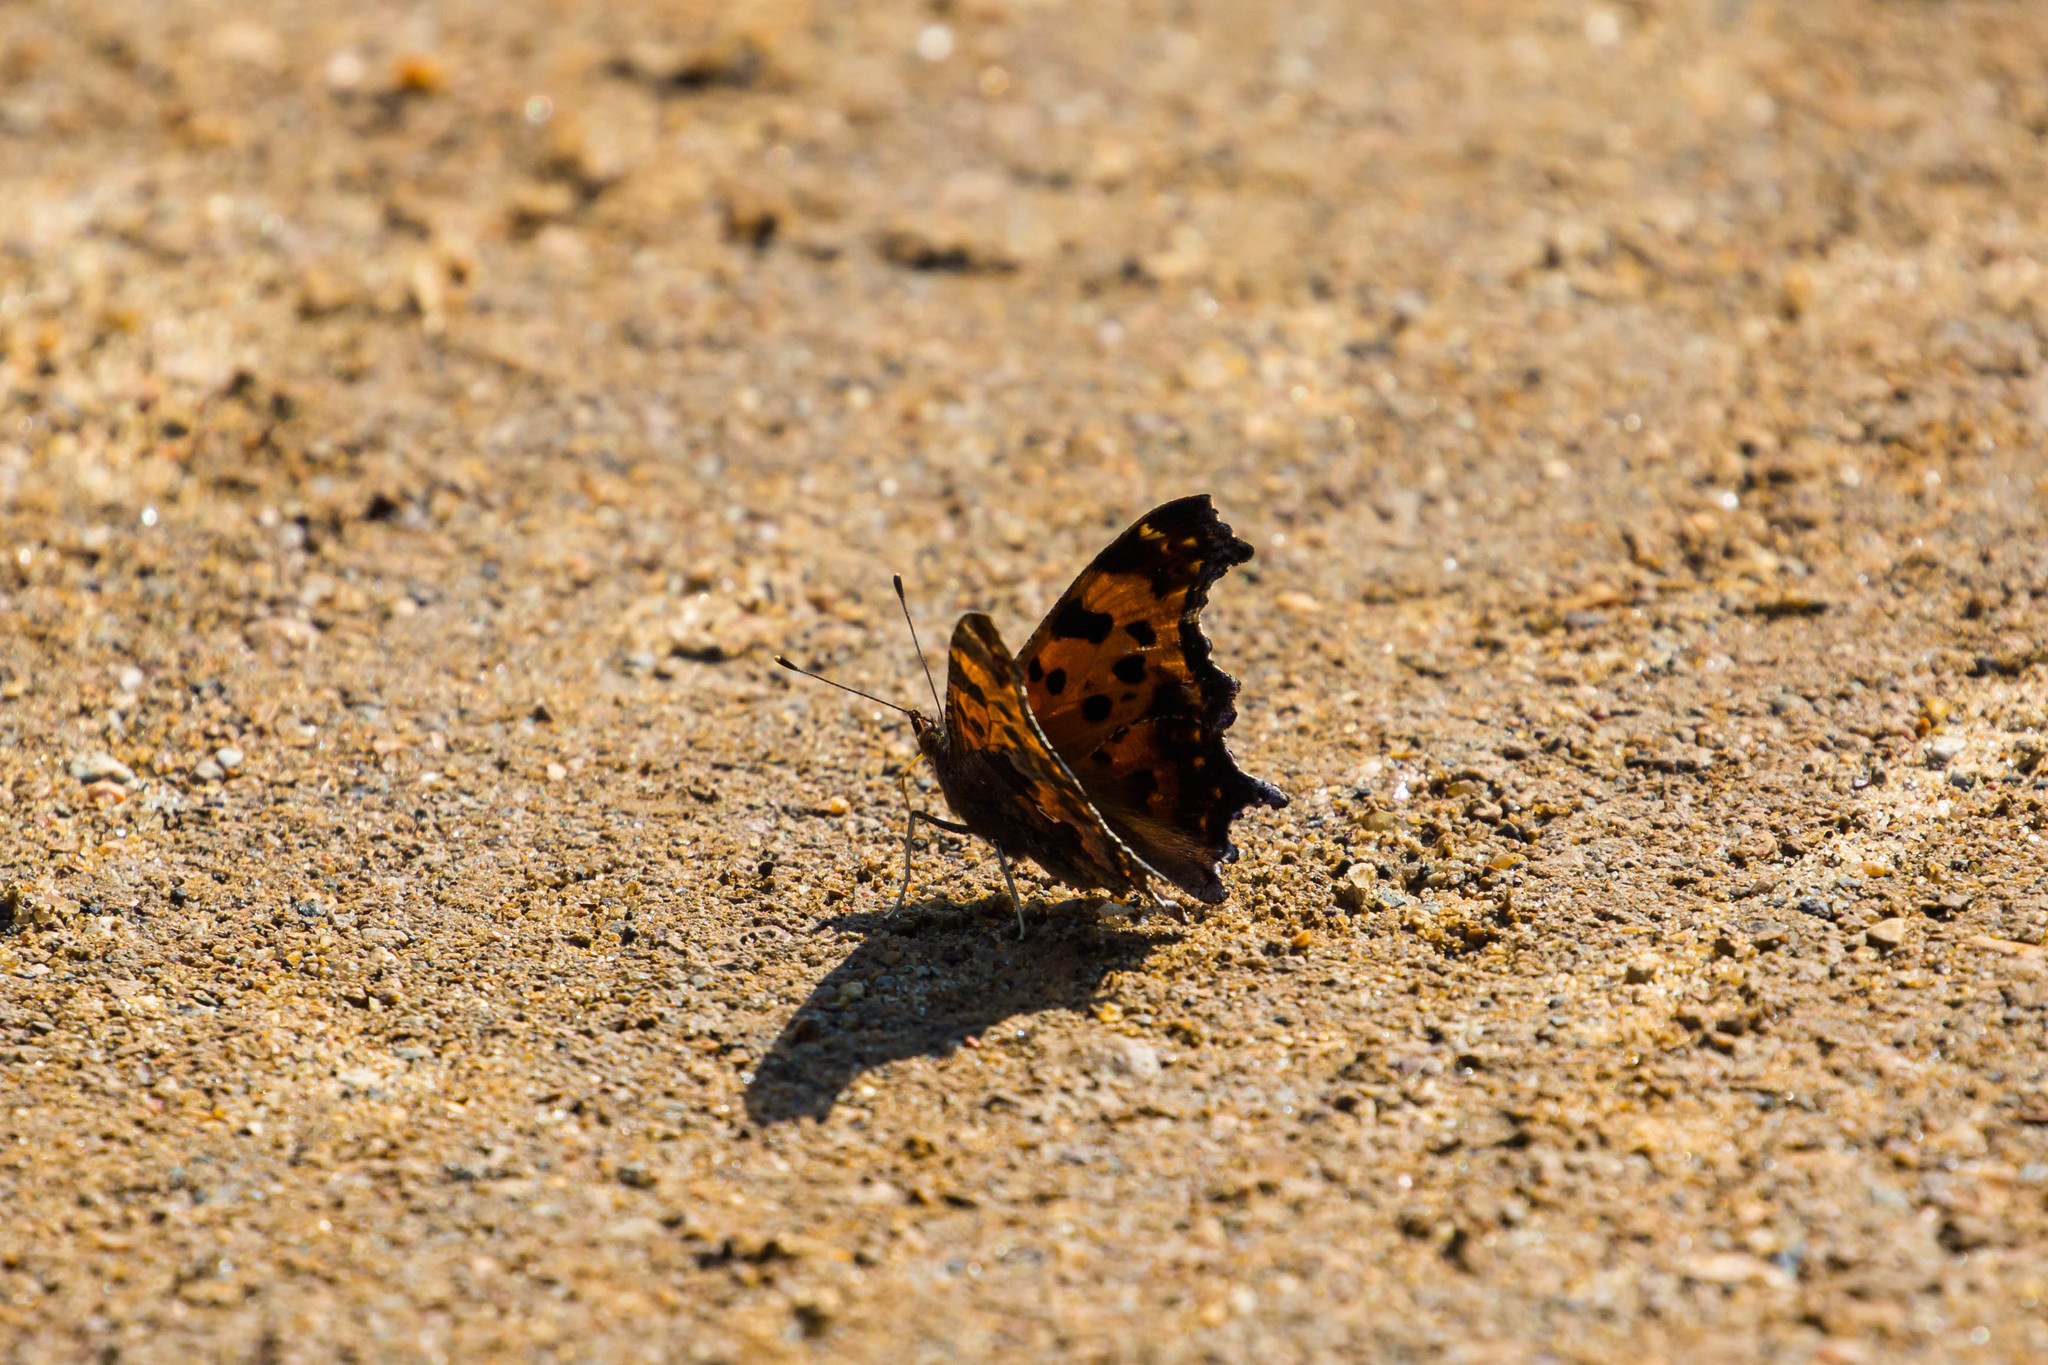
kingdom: Animalia
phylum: Arthropoda
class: Insecta
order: Lepidoptera
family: Nymphalidae
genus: Polygonia
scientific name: Polygonia comma
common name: Eastern comma
